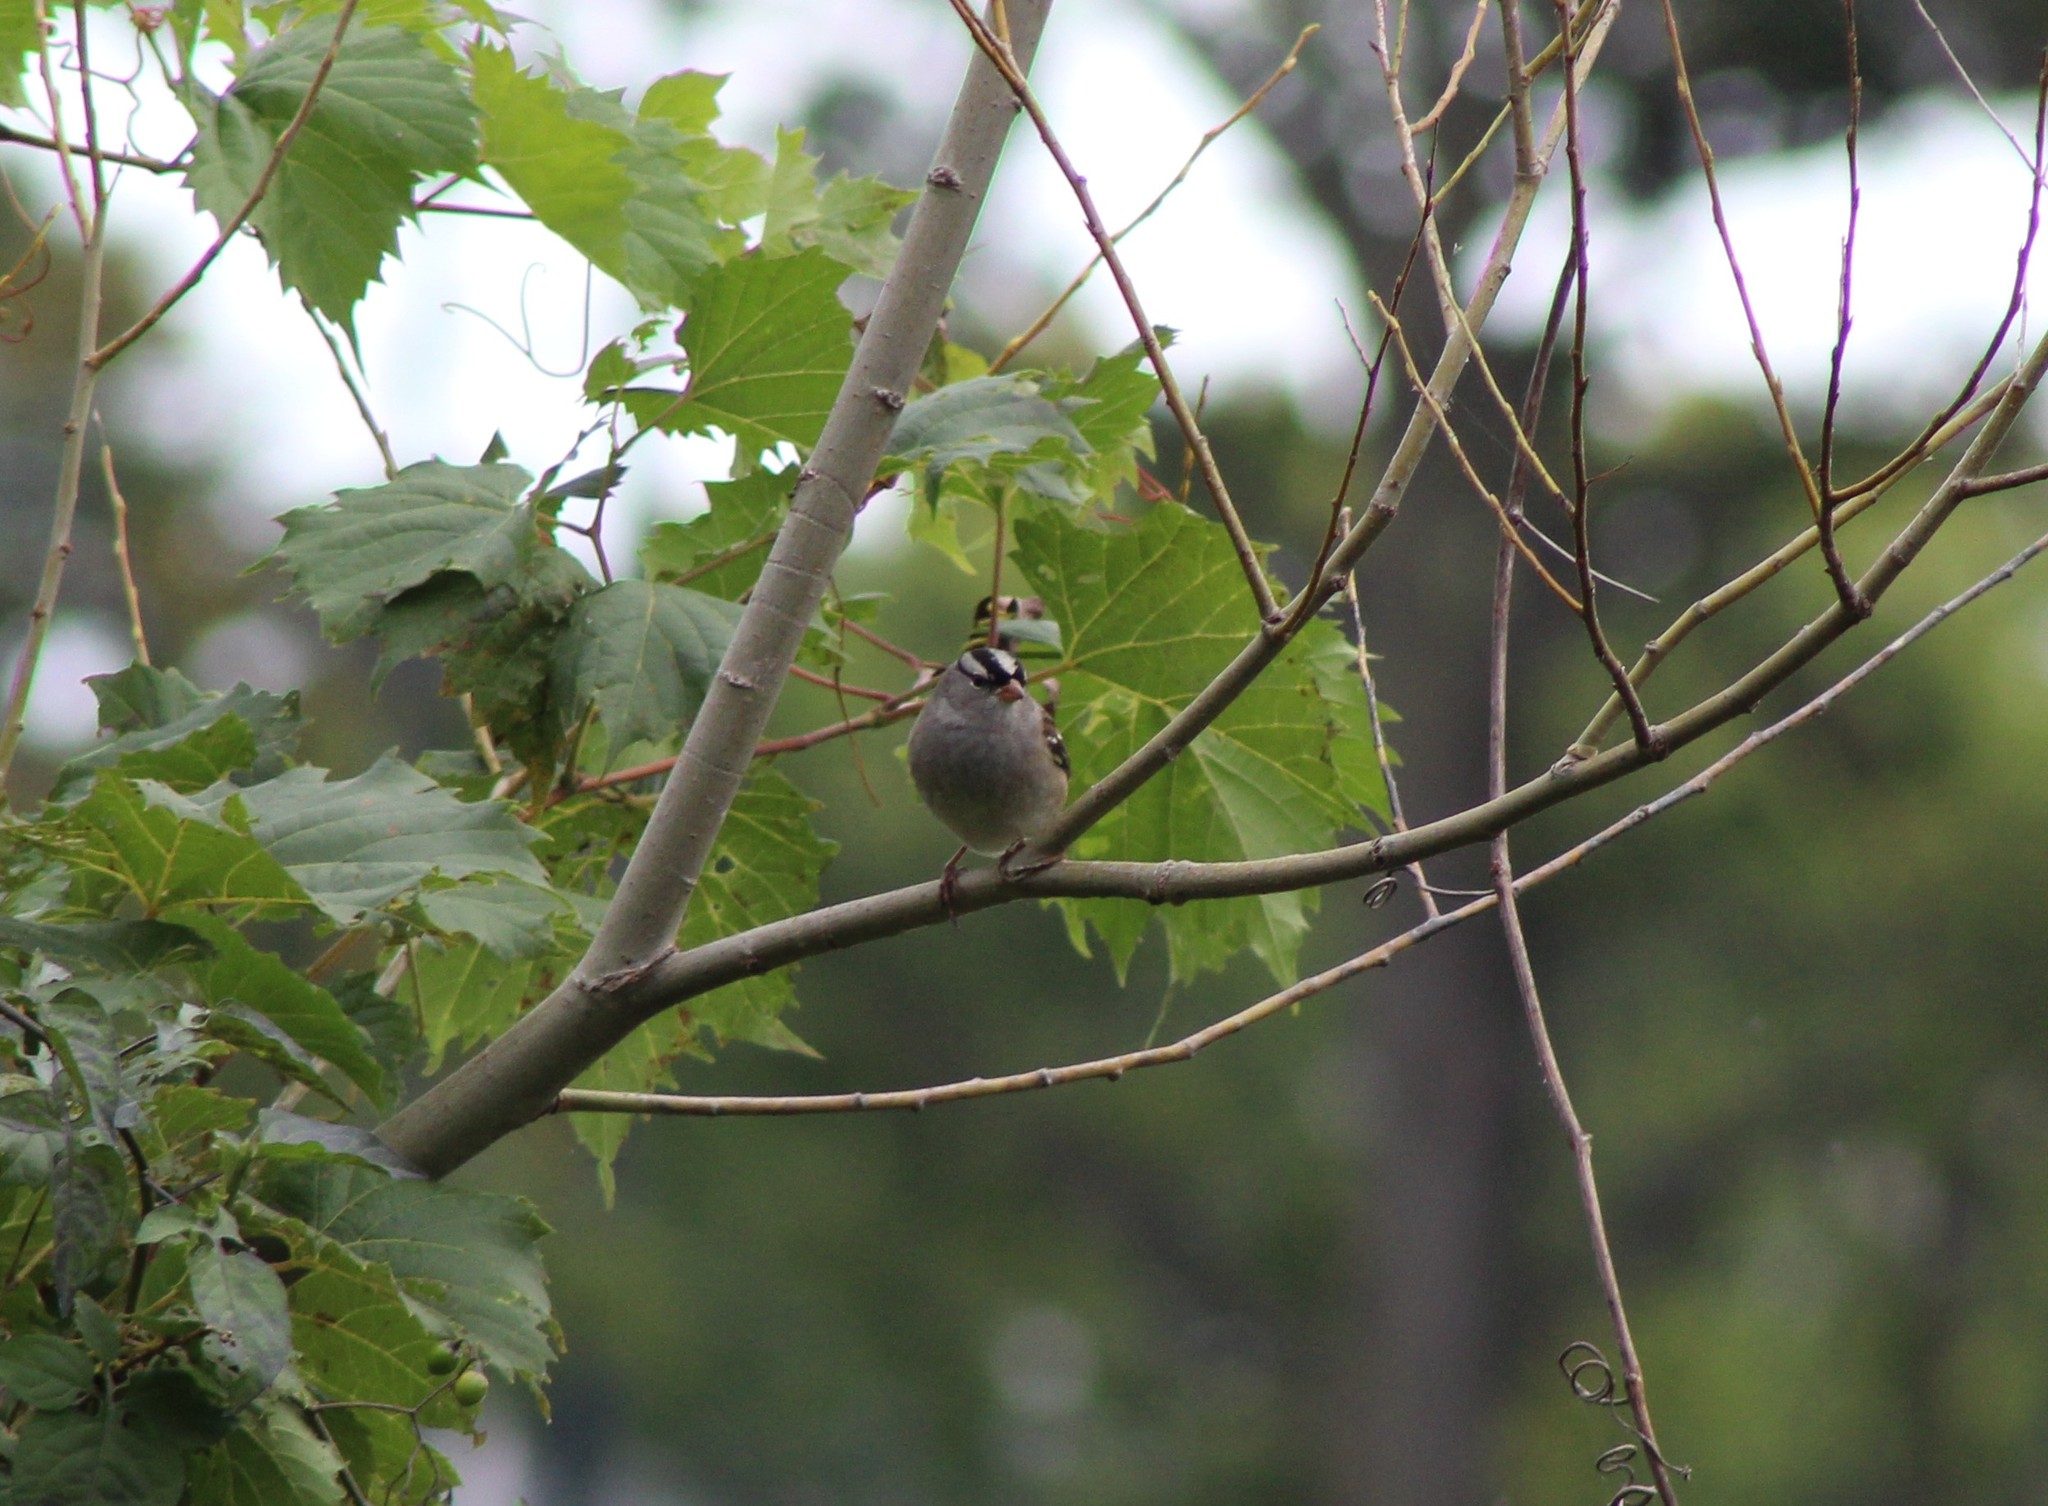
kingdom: Animalia
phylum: Chordata
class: Aves
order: Passeriformes
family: Passerellidae
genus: Zonotrichia
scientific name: Zonotrichia leucophrys
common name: White-crowned sparrow
